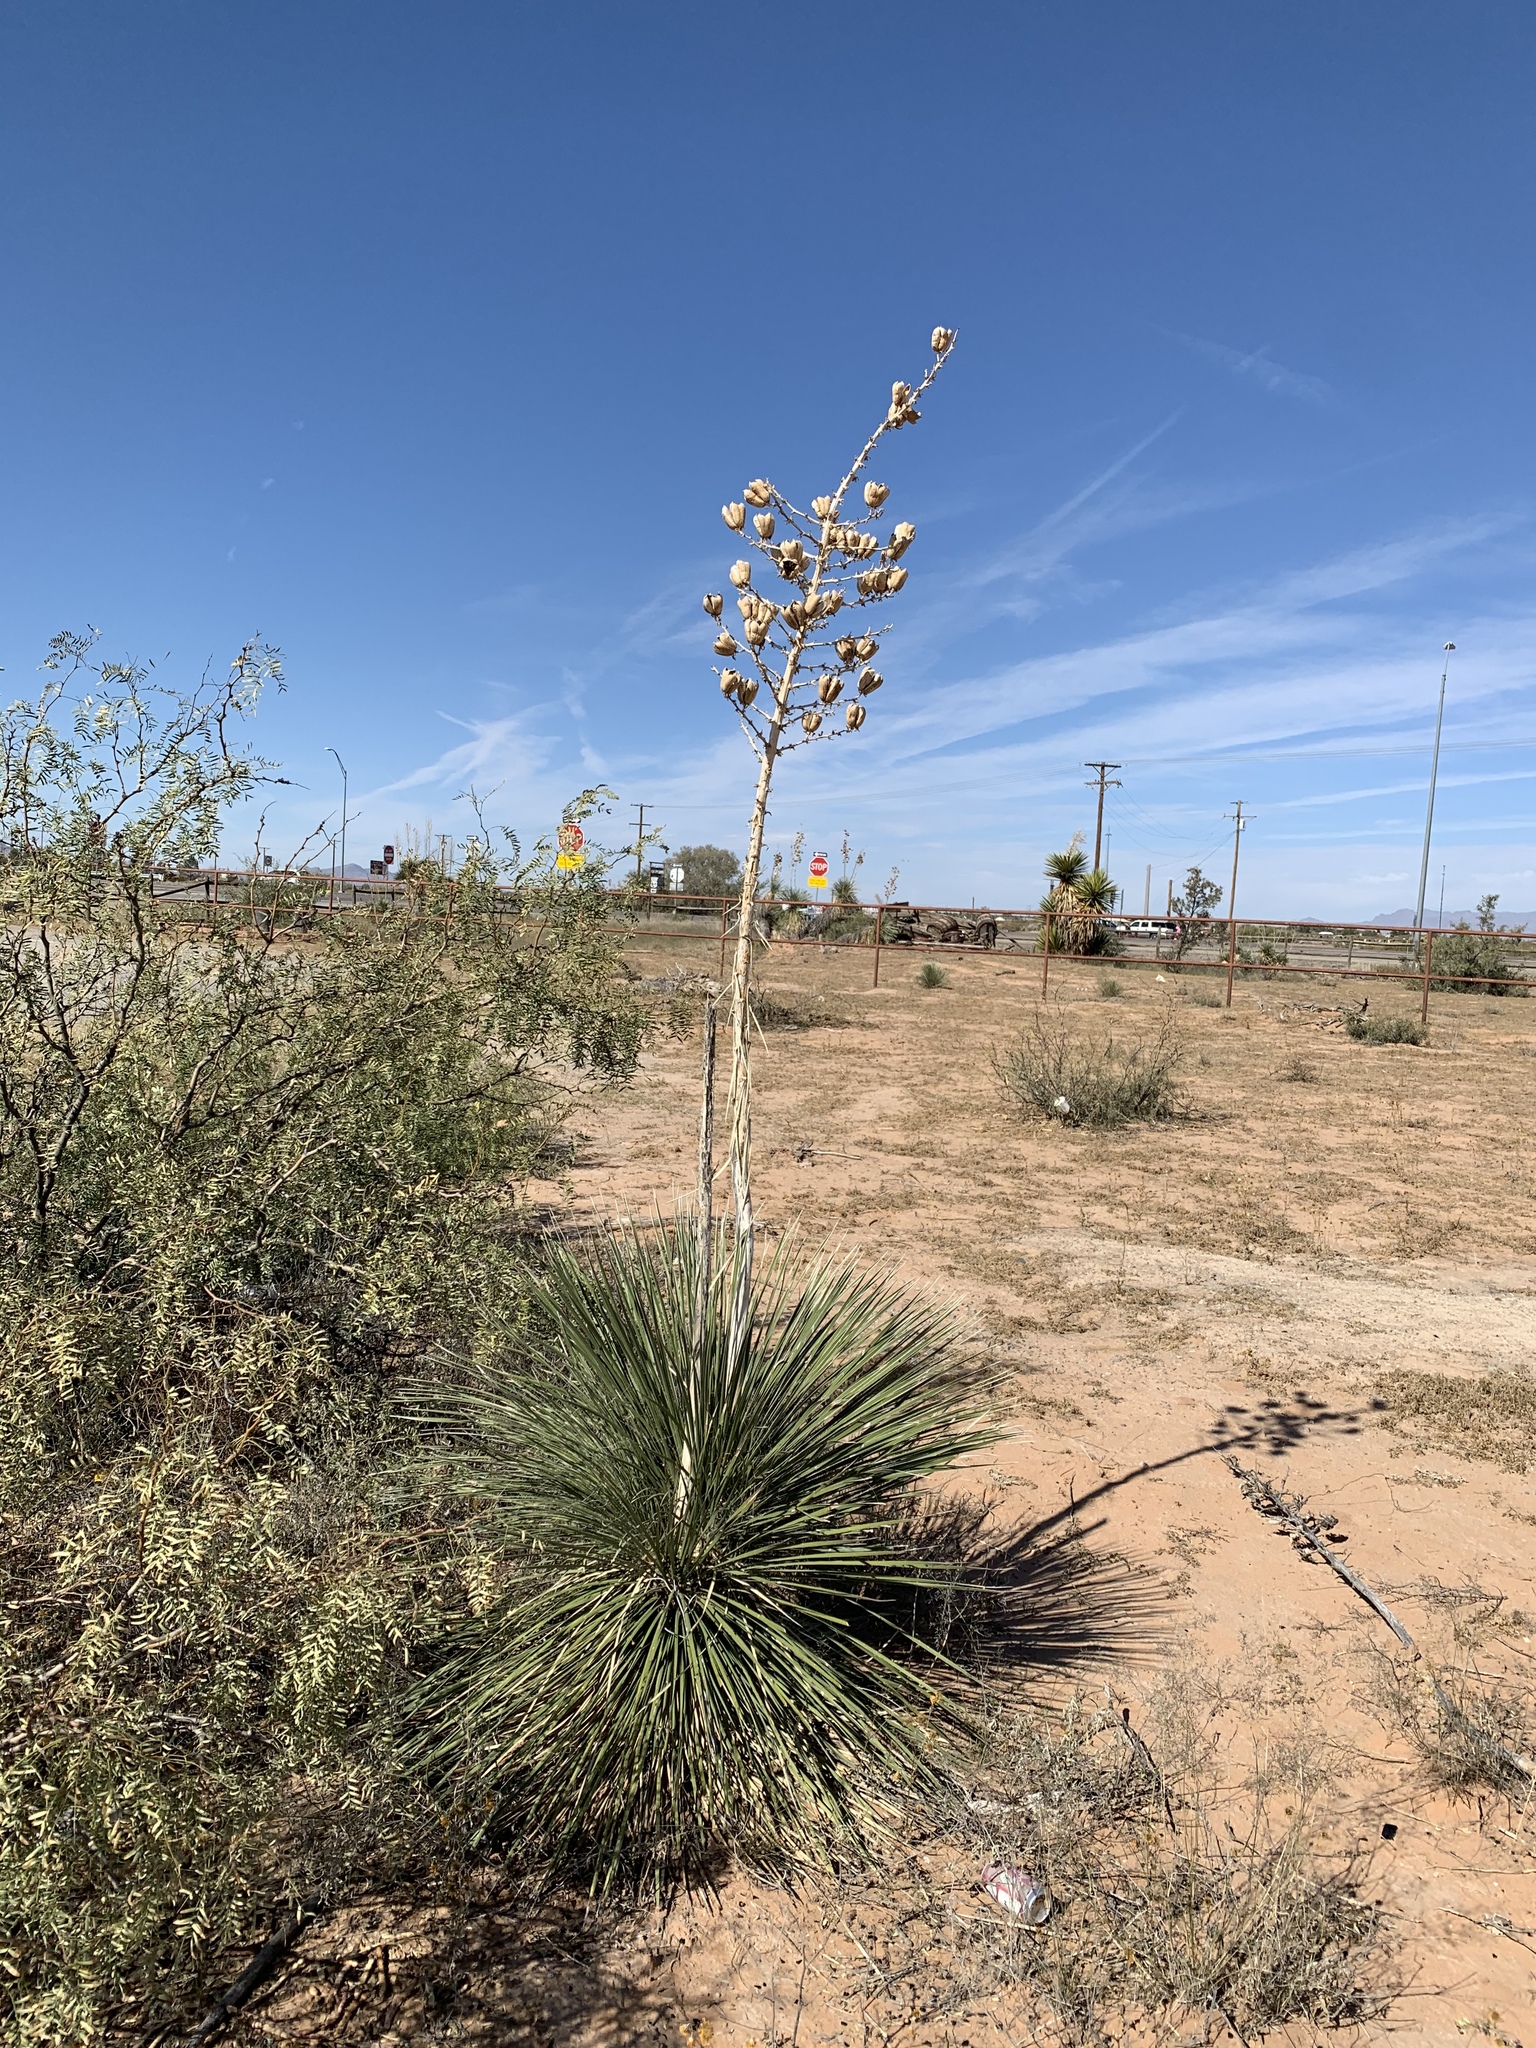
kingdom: Plantae
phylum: Tracheophyta
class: Liliopsida
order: Asparagales
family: Asparagaceae
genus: Yucca
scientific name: Yucca elata
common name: Palmella
